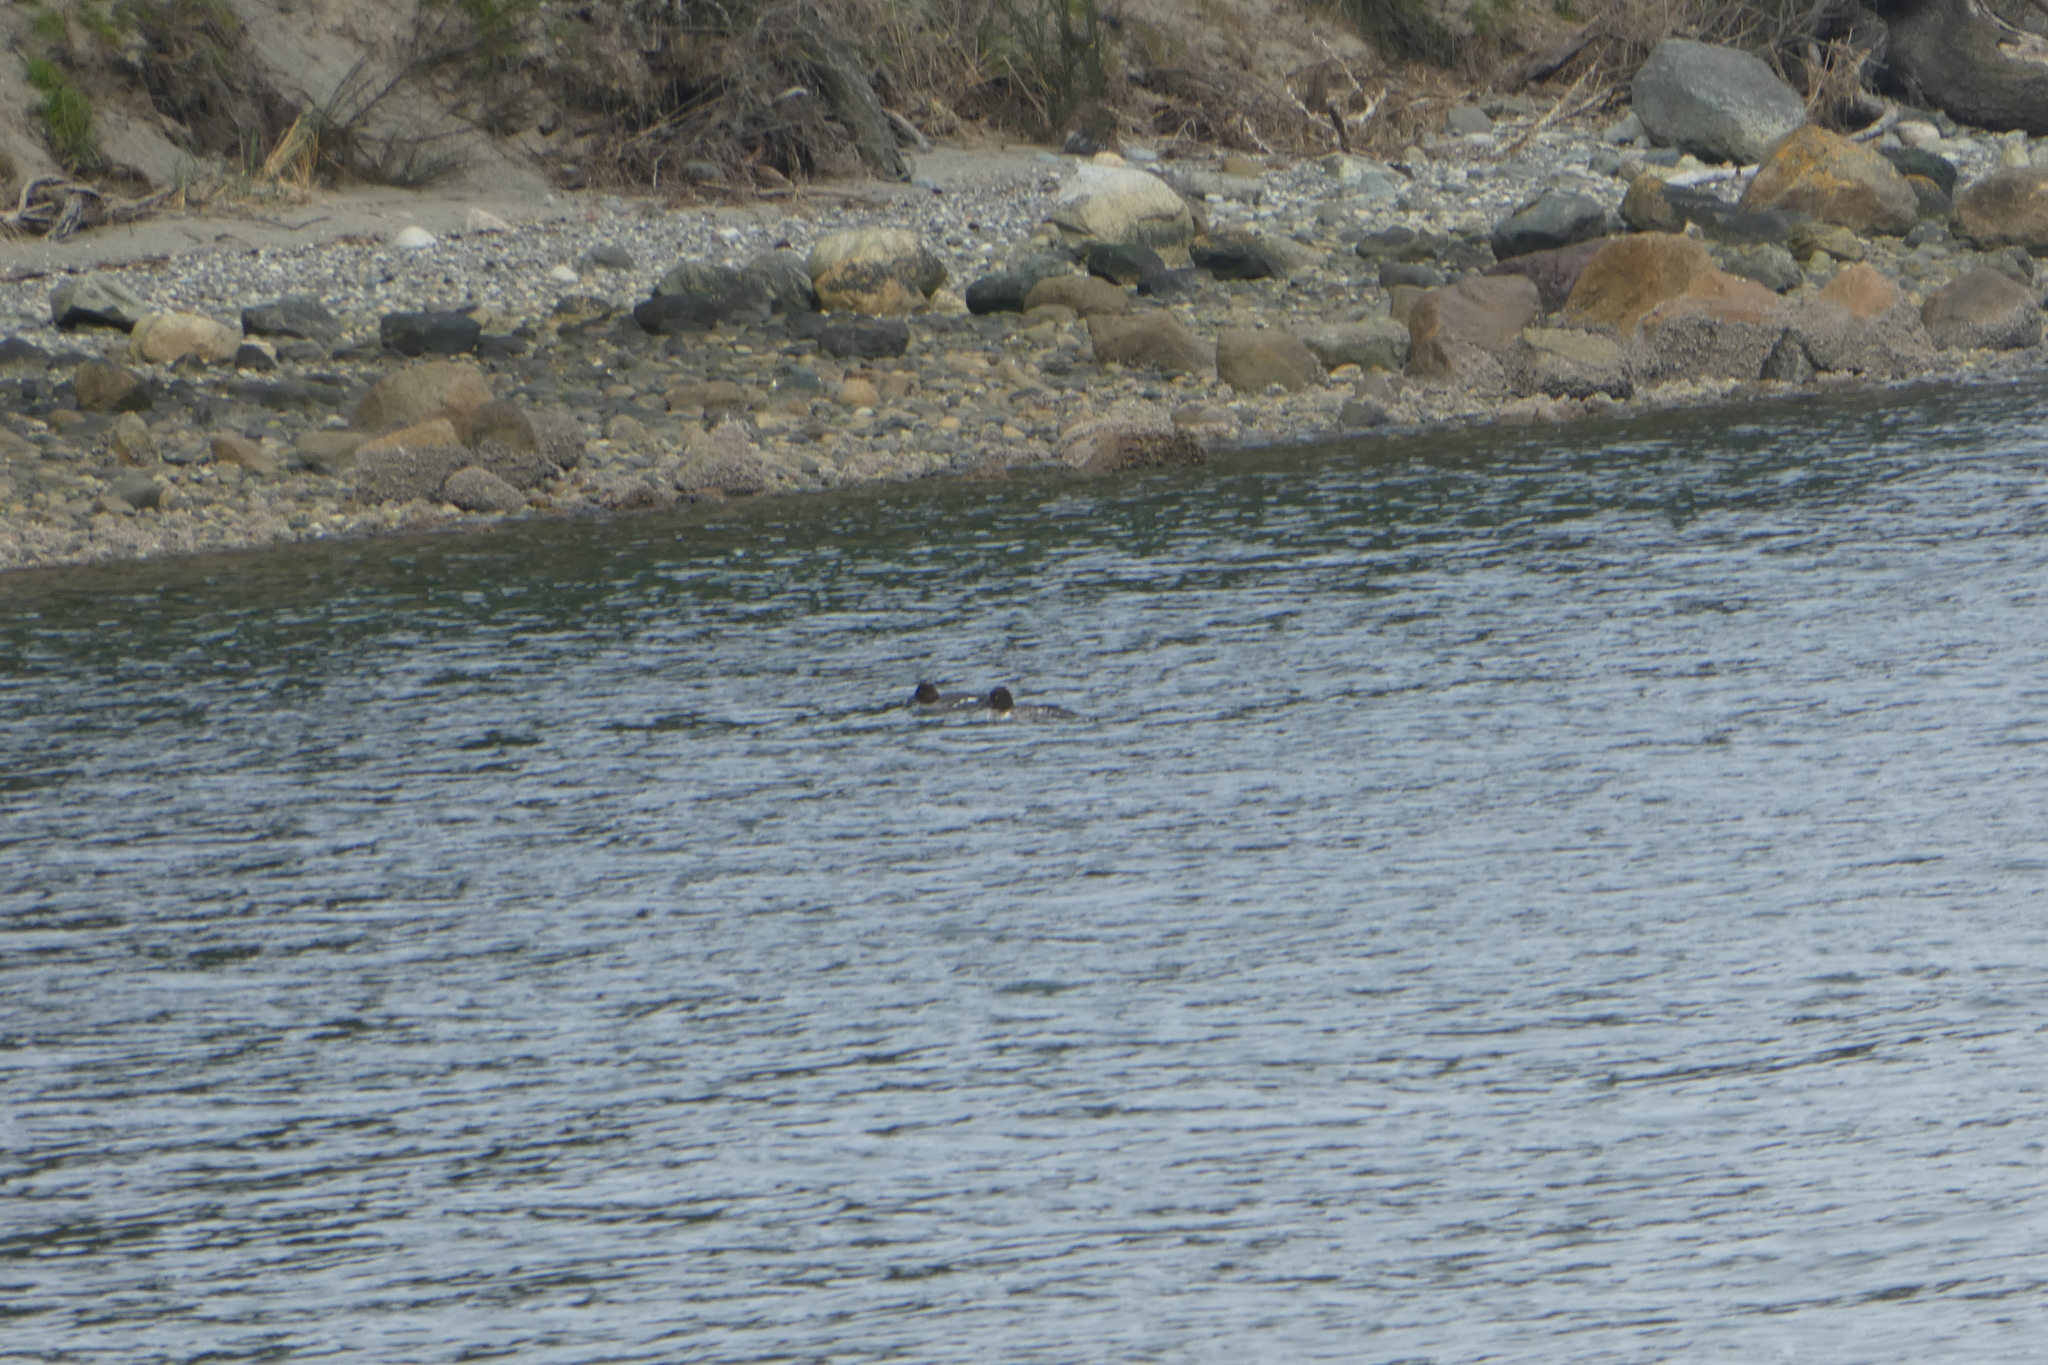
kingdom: Animalia
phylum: Chordata
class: Aves
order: Anseriformes
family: Anatidae
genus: Bucephala
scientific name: Bucephala clangula
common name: Common goldeneye
